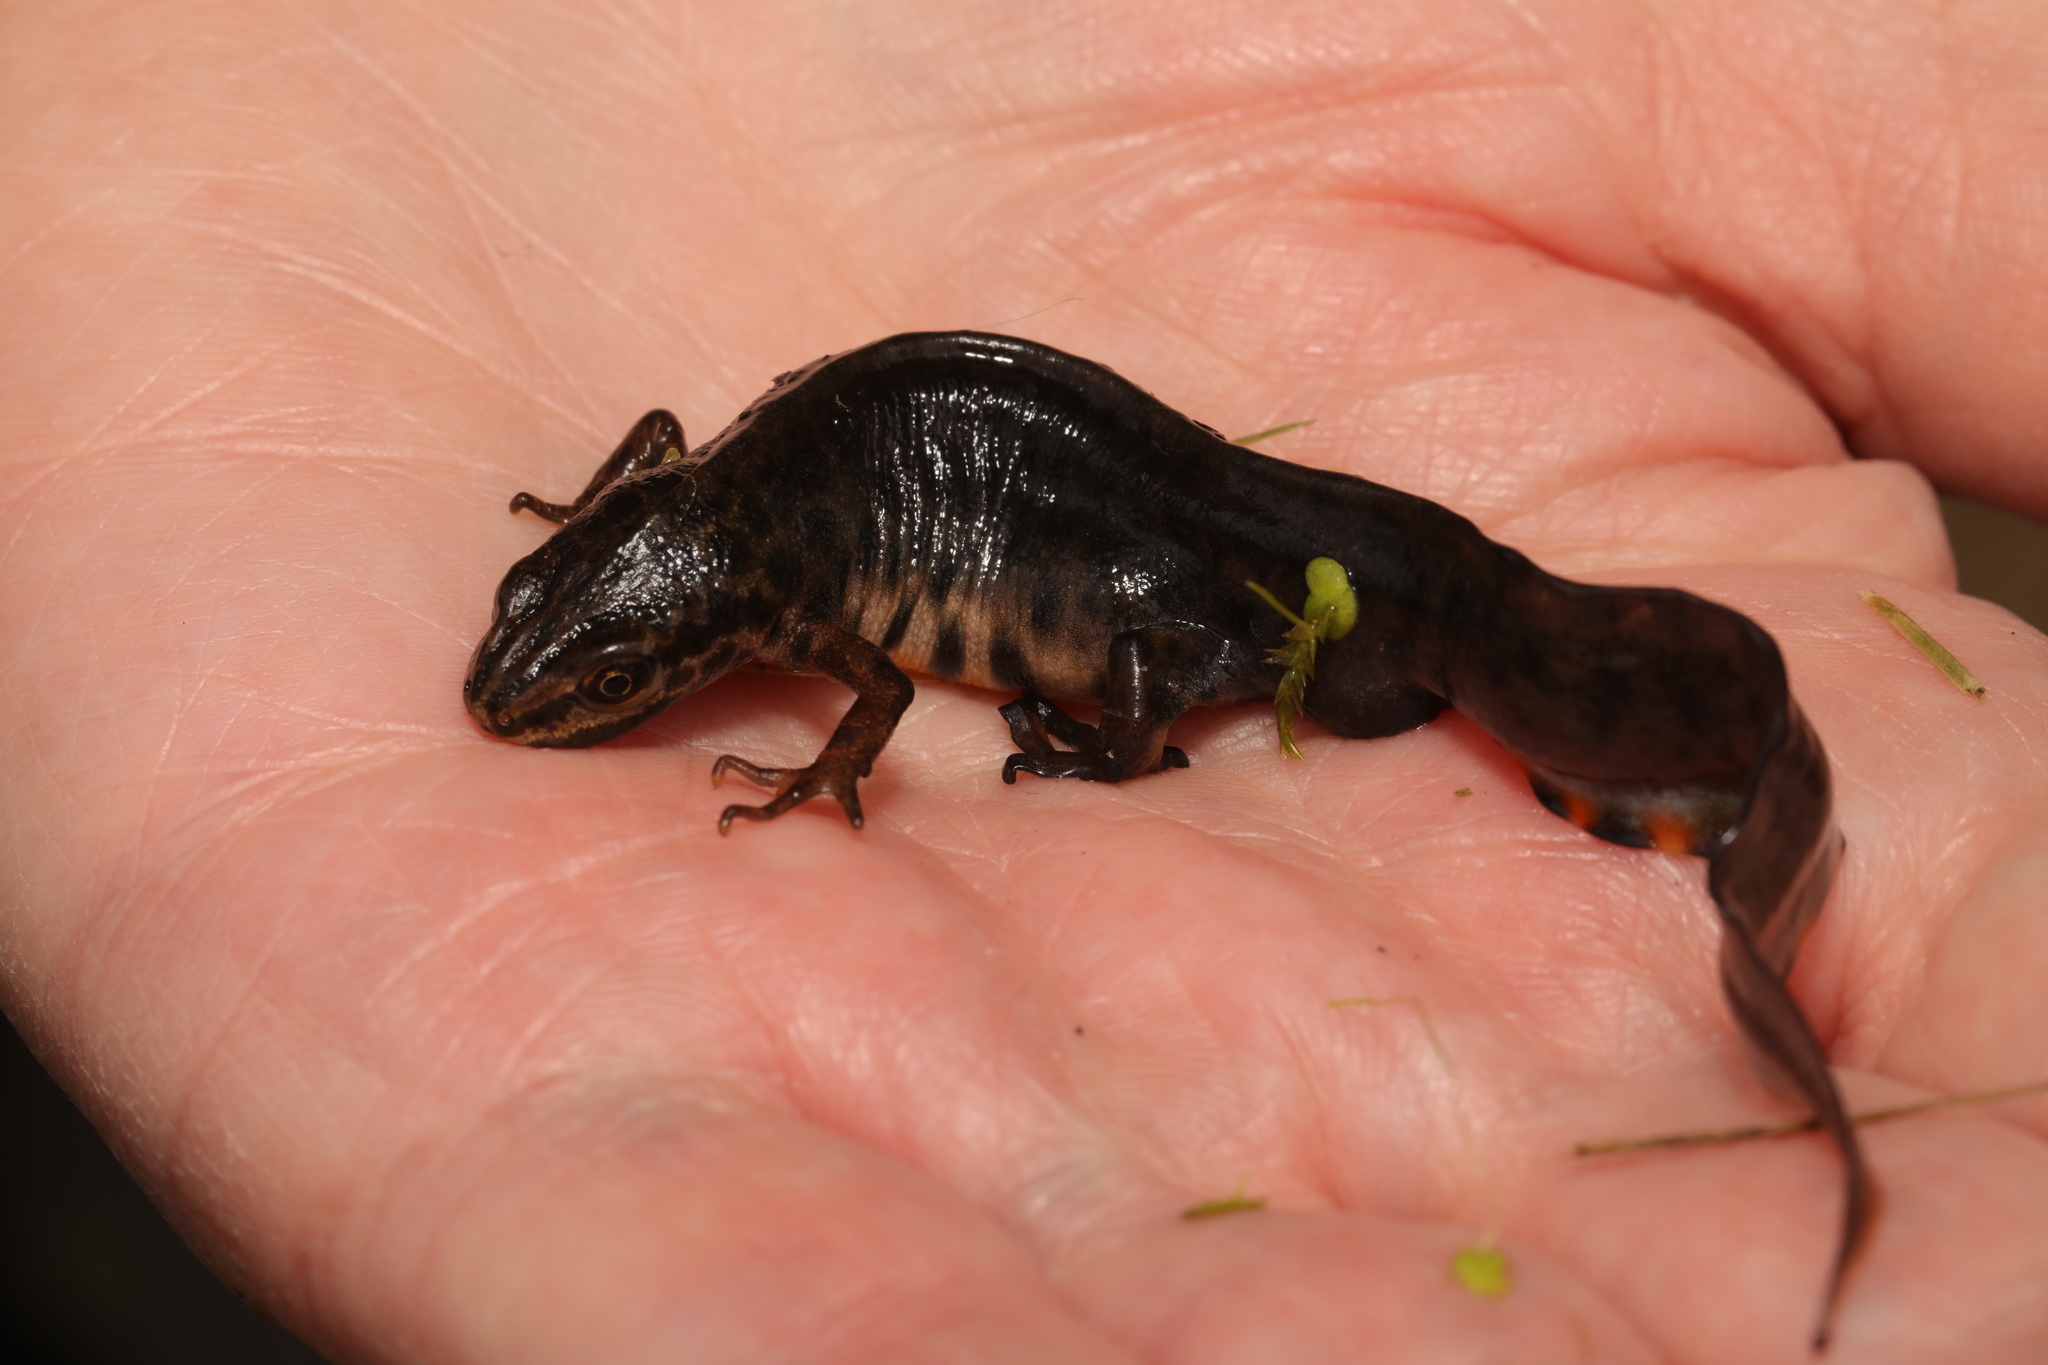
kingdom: Animalia
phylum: Chordata
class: Amphibia
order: Caudata
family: Salamandridae
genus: Lissotriton
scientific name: Lissotriton vulgaris
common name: Smooth newt
